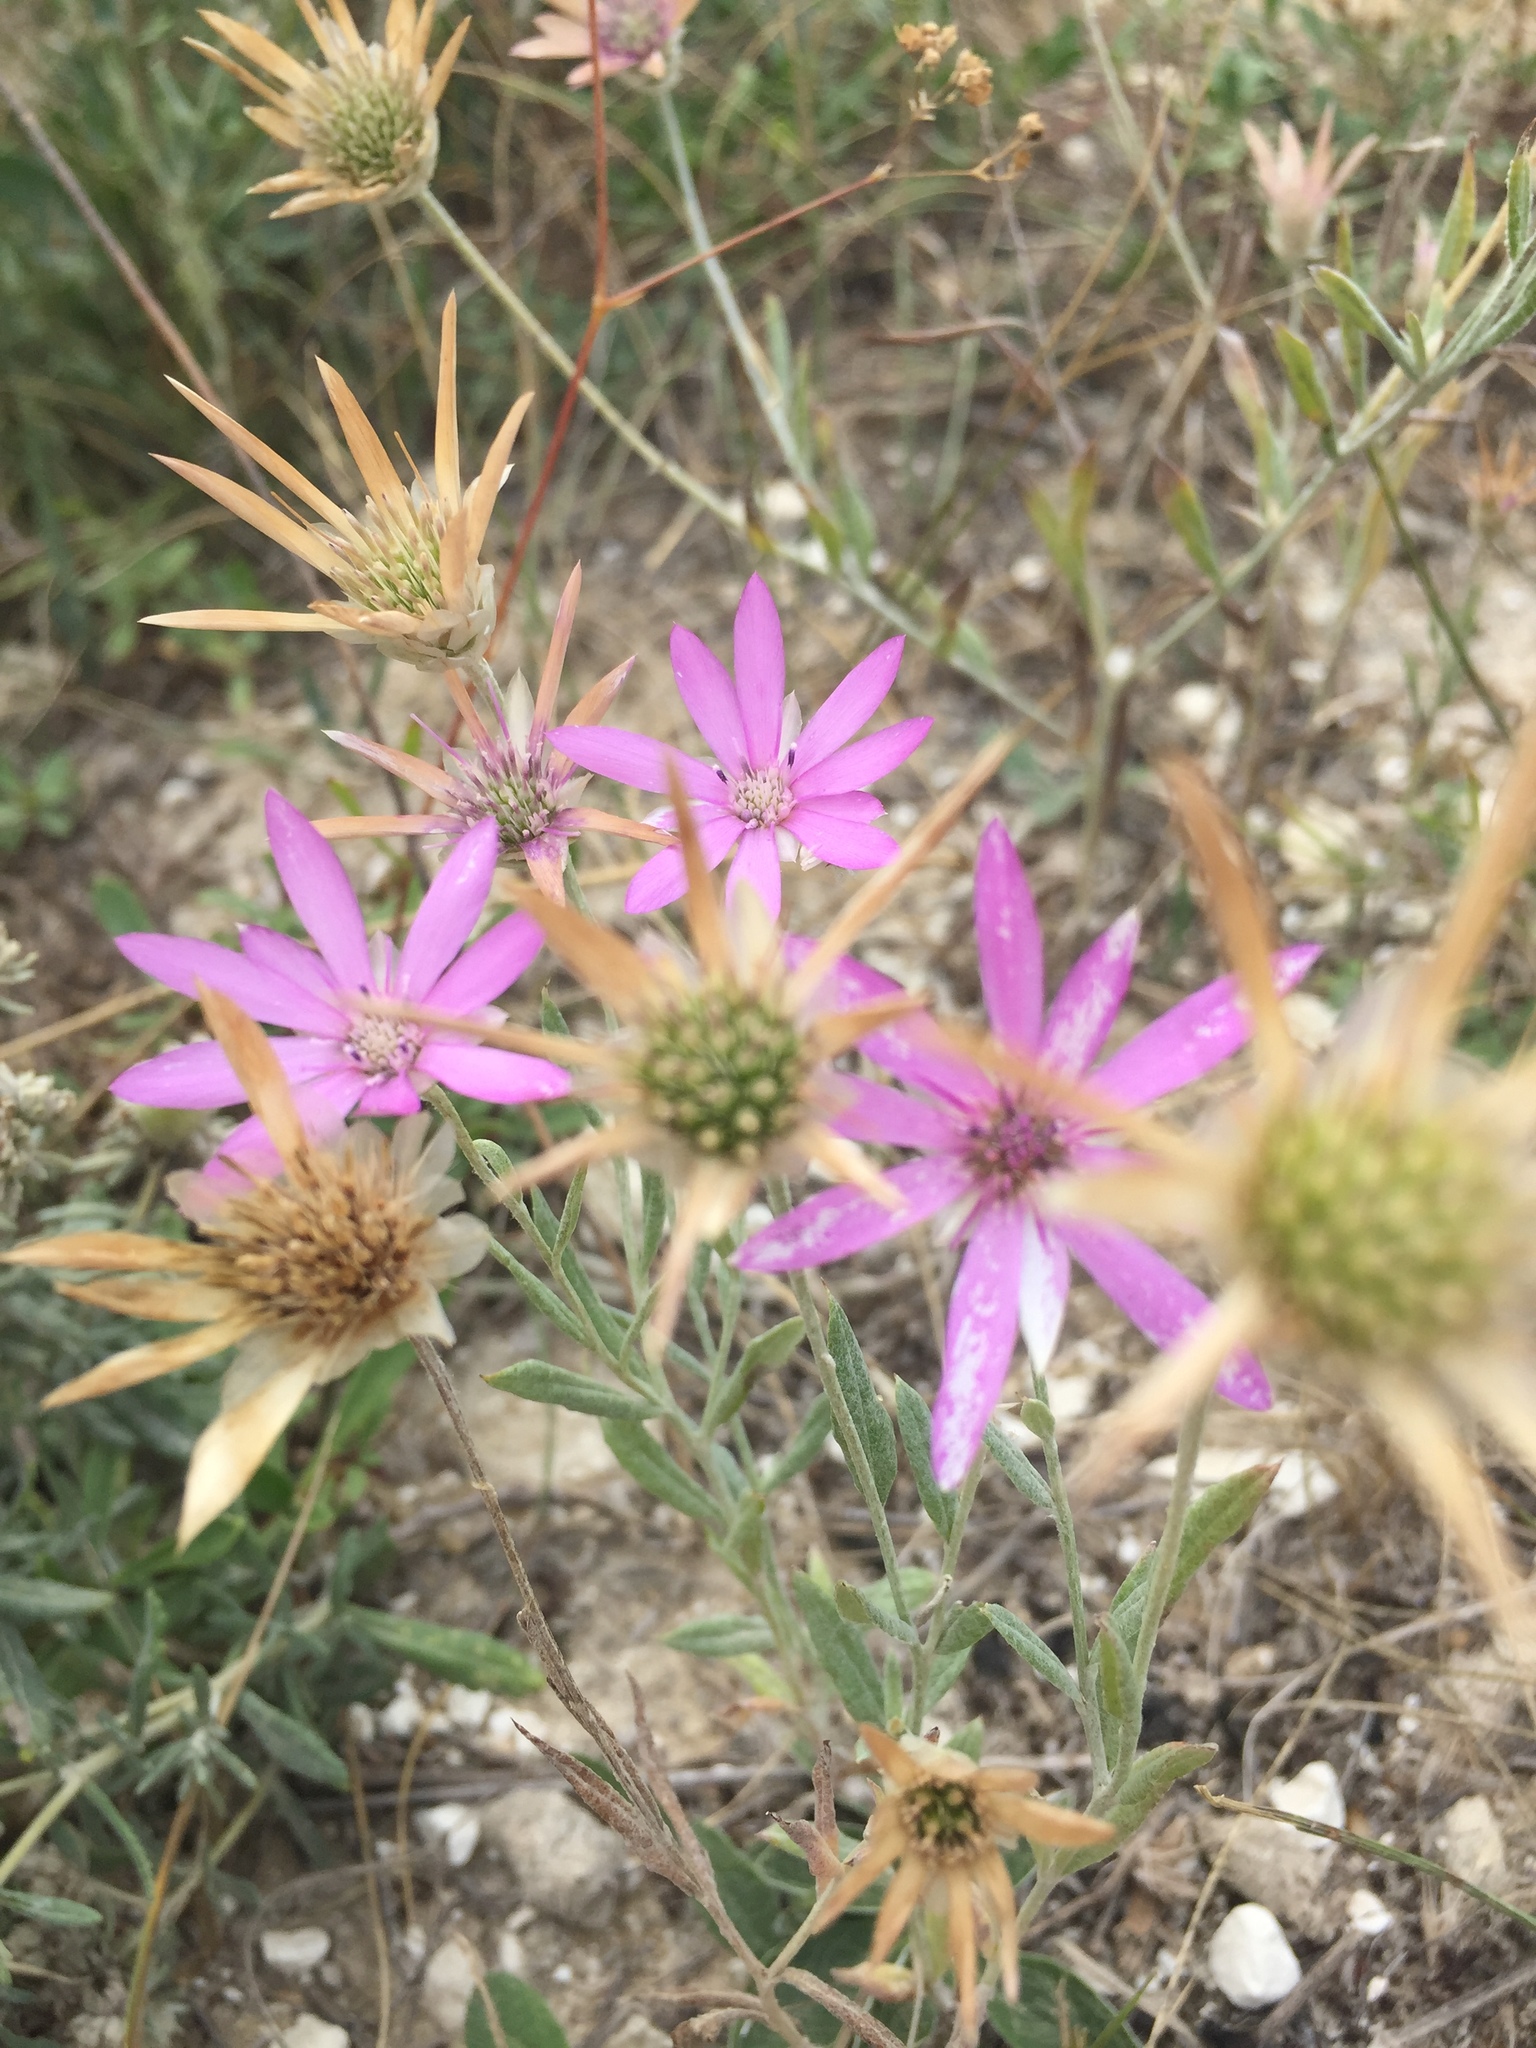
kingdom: Plantae
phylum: Tracheophyta
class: Magnoliopsida
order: Asterales
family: Asteraceae
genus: Xeranthemum
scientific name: Xeranthemum annuum
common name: Immortelle
